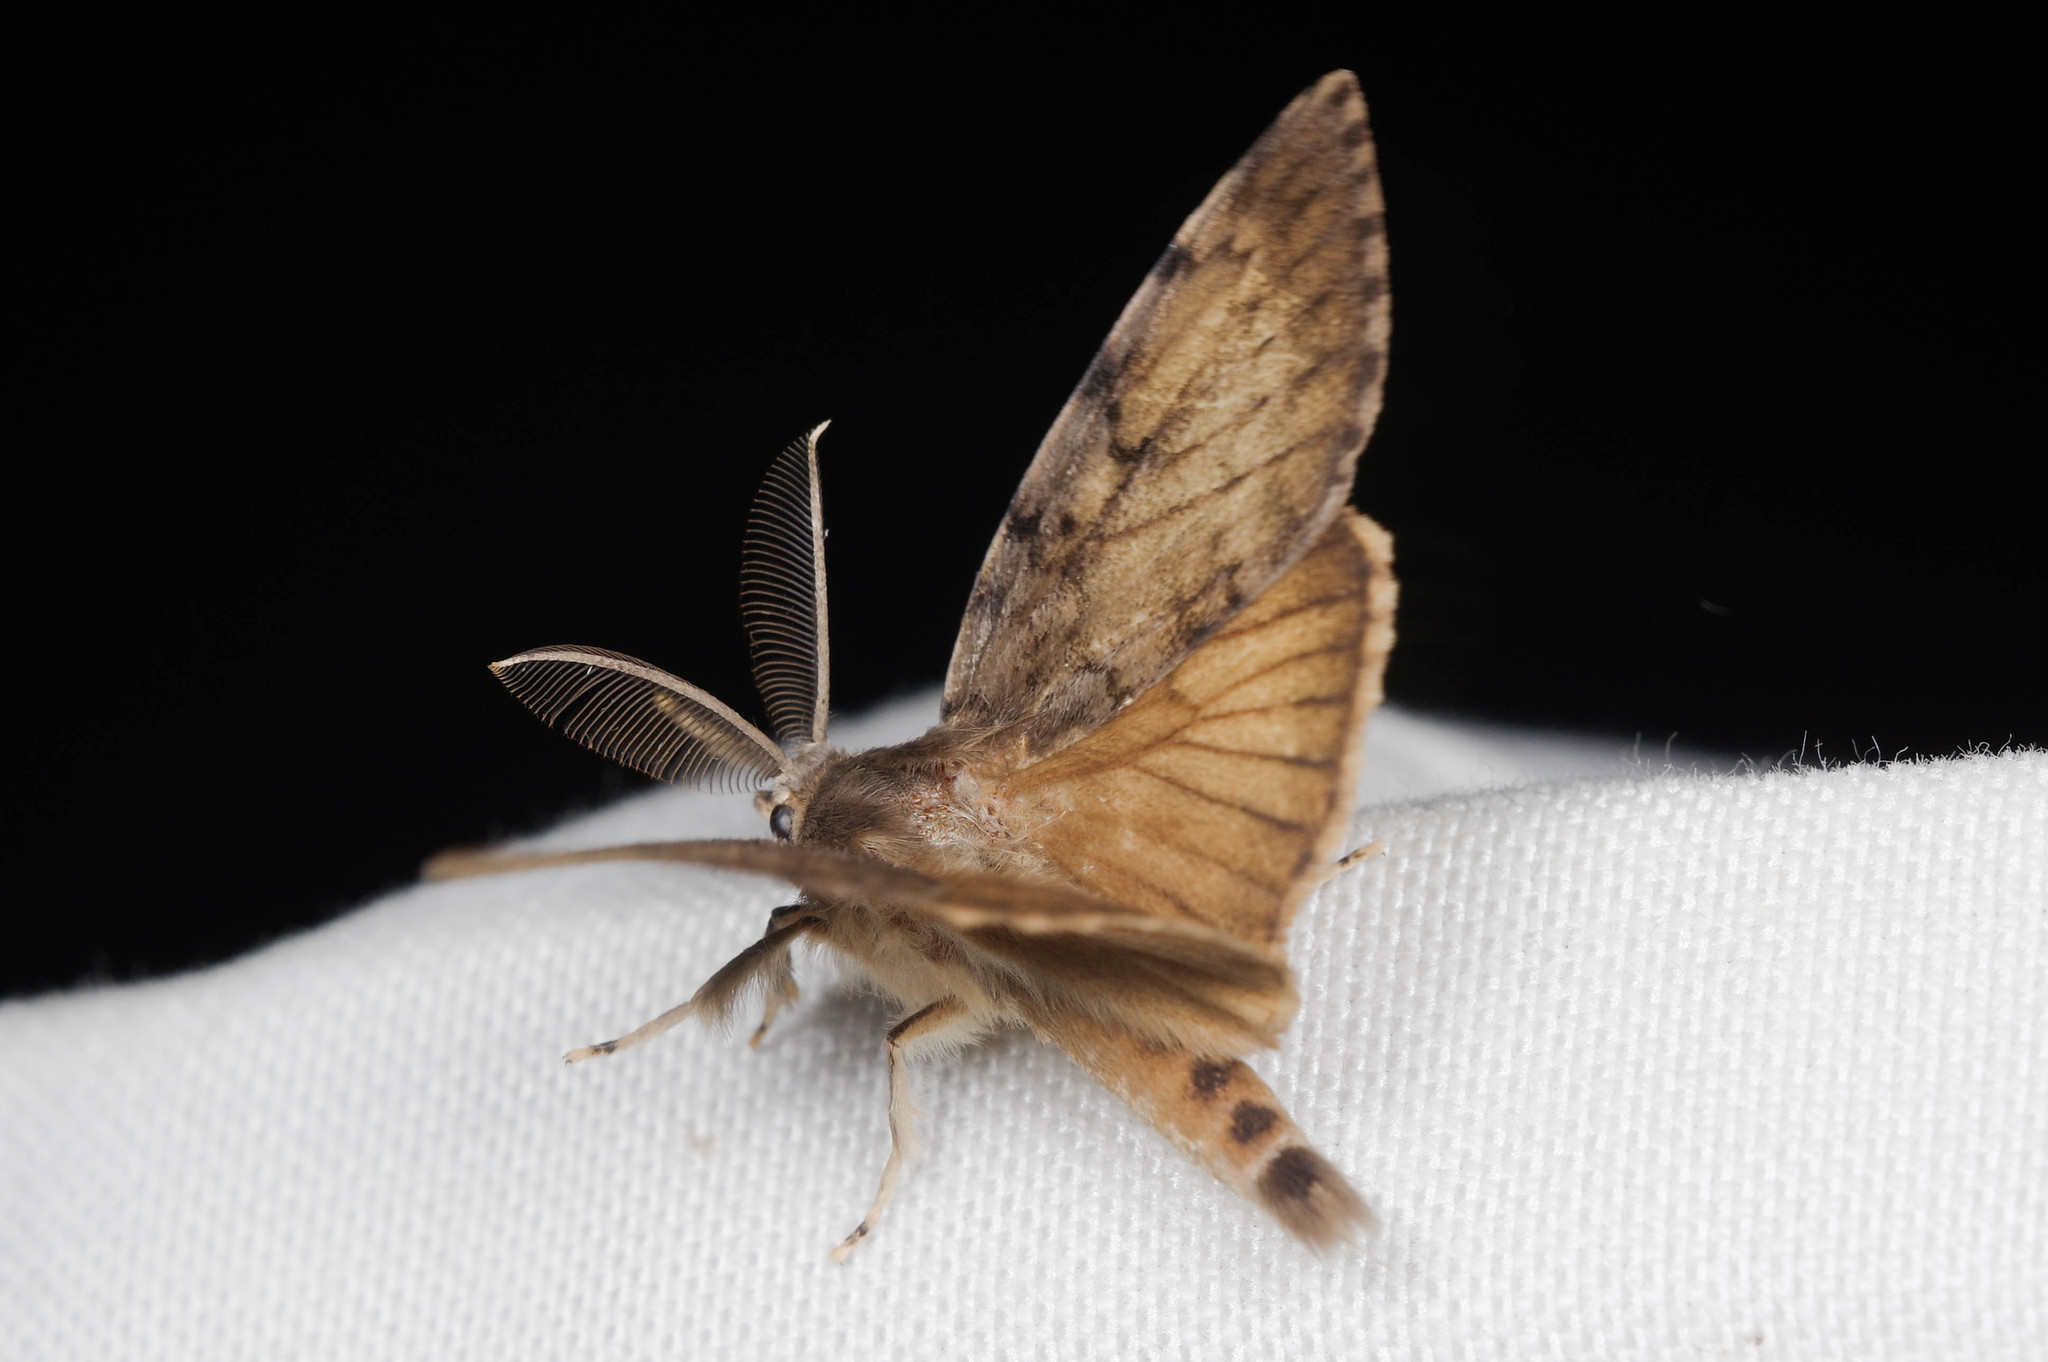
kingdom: Animalia
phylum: Arthropoda
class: Insecta
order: Lepidoptera
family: Erebidae
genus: Lymantria
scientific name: Lymantria dispar
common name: Gypsy moth
